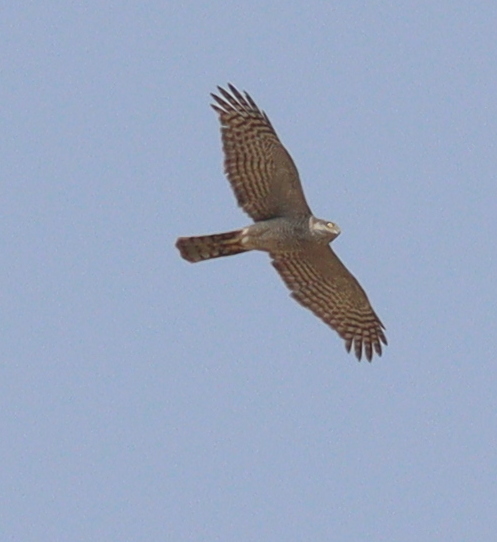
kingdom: Animalia
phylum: Chordata
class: Aves
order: Accipitriformes
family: Accipitridae
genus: Accipiter
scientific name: Accipiter nisus
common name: Eurasian sparrowhawk
